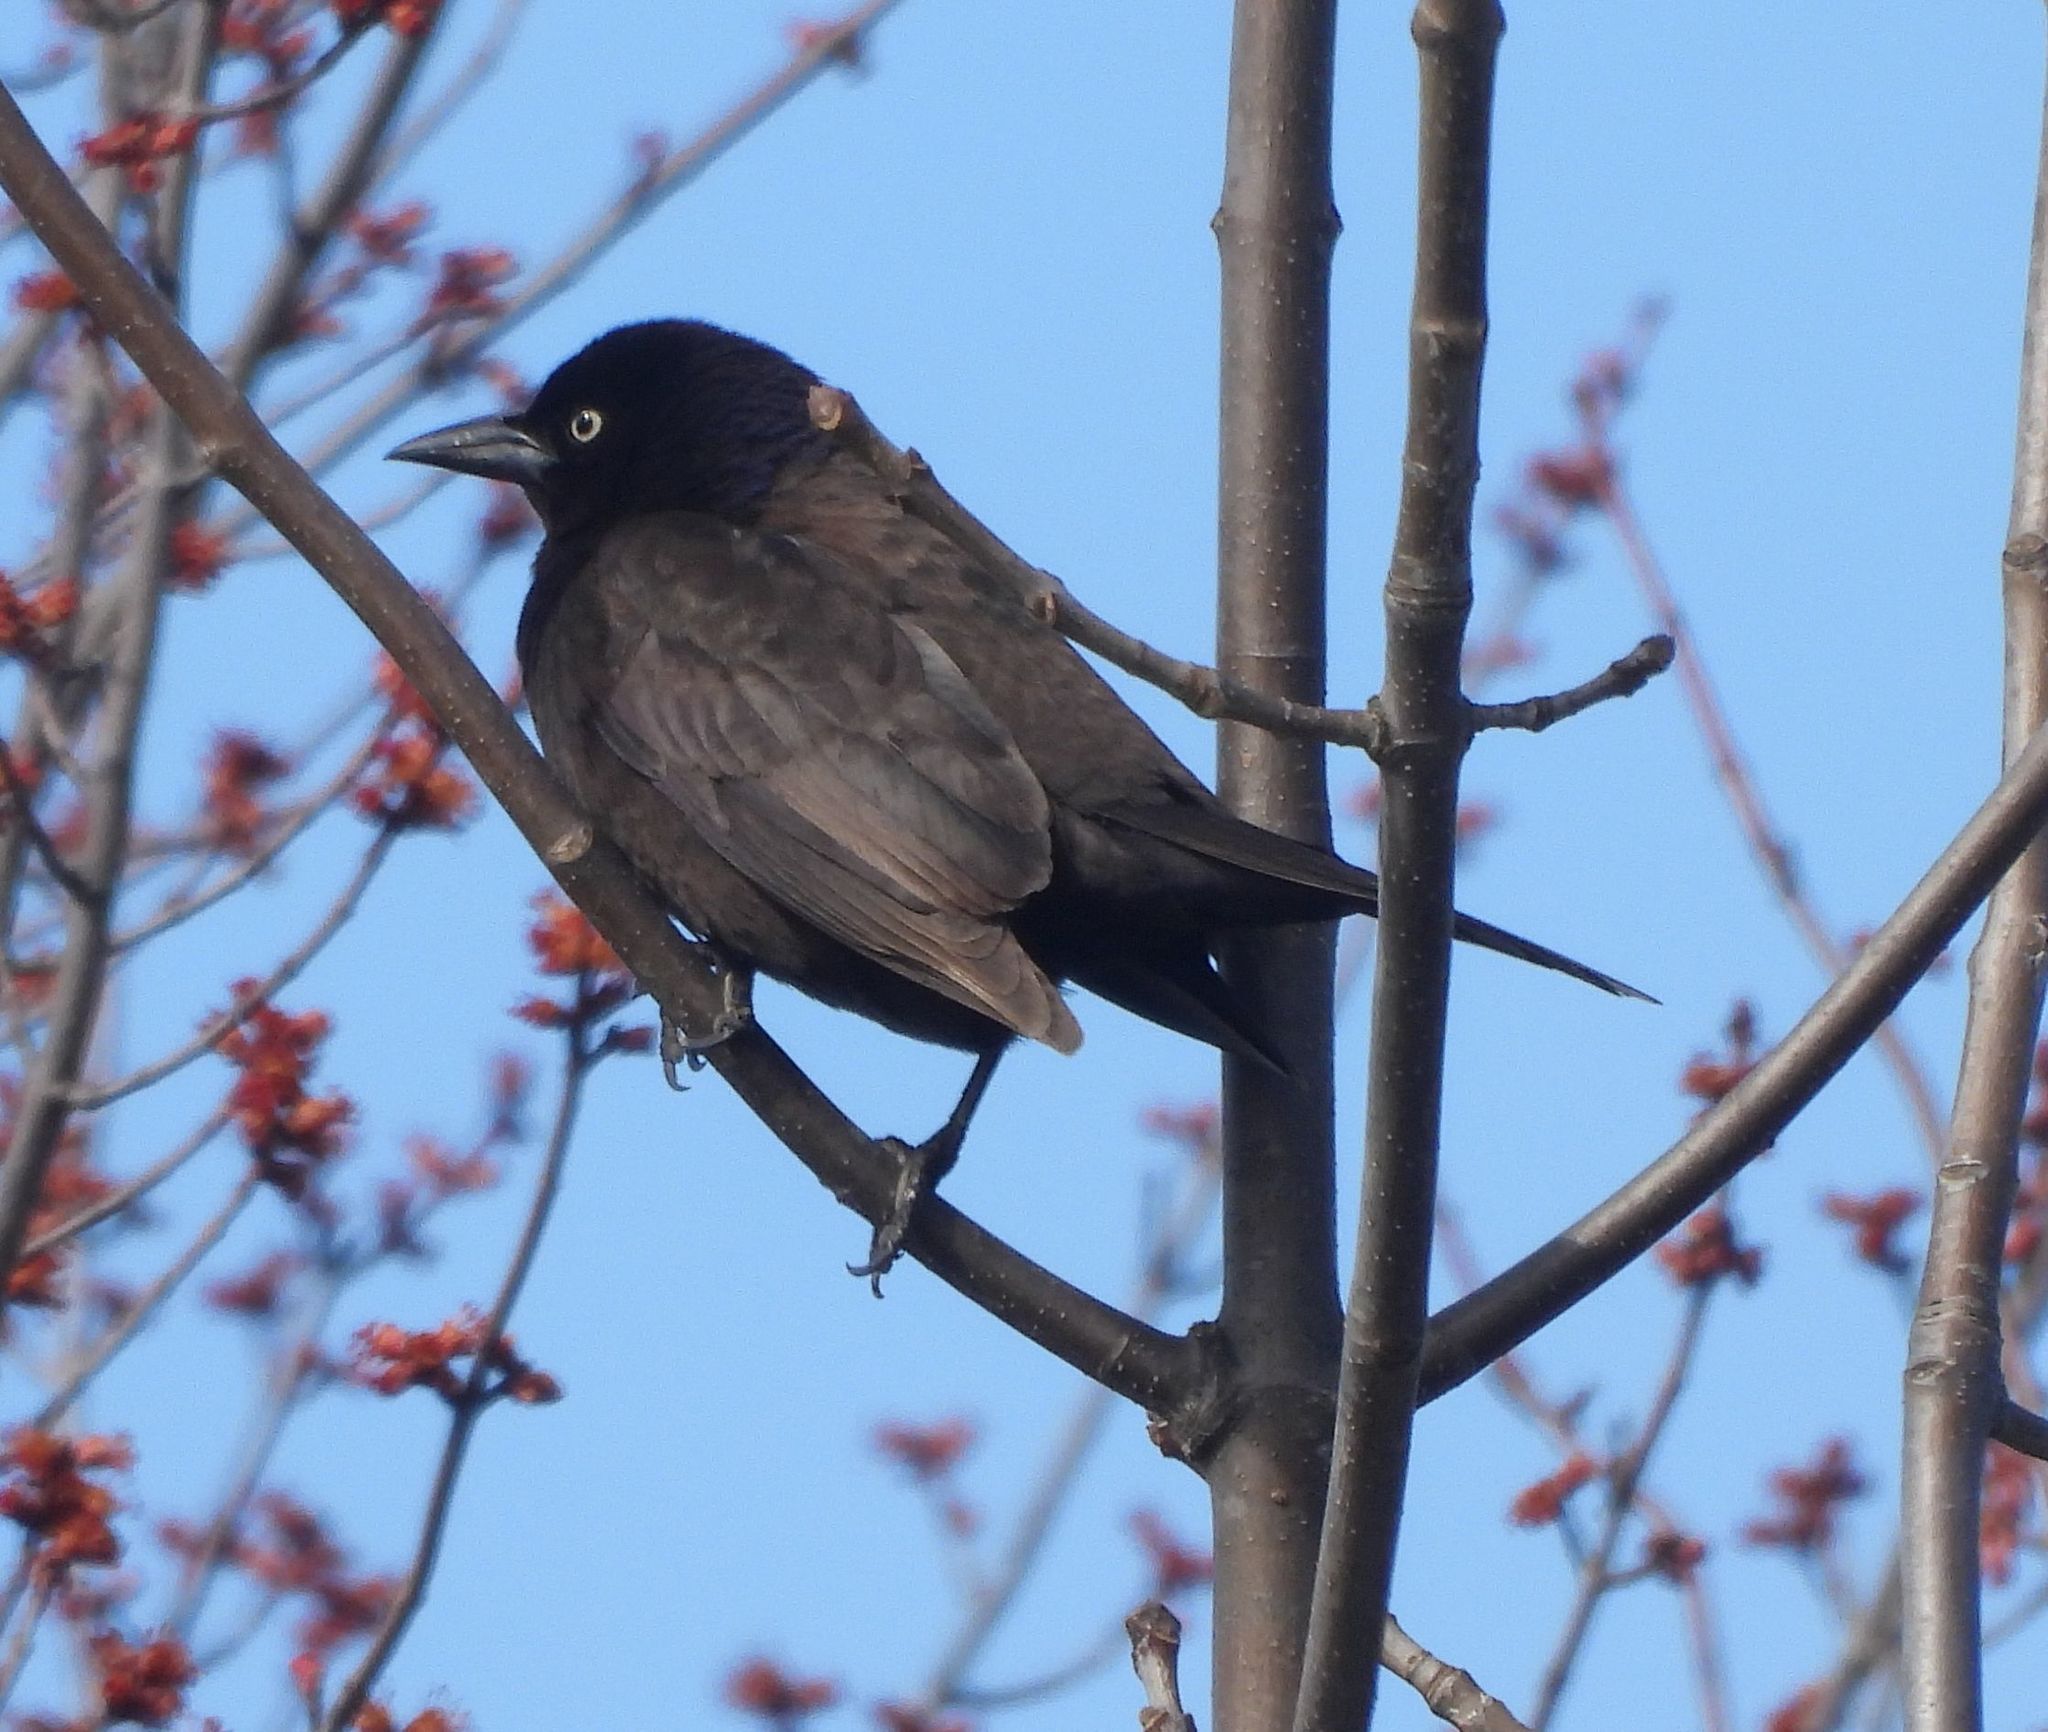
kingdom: Animalia
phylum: Chordata
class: Aves
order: Passeriformes
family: Icteridae
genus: Quiscalus
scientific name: Quiscalus quiscula
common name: Common grackle
